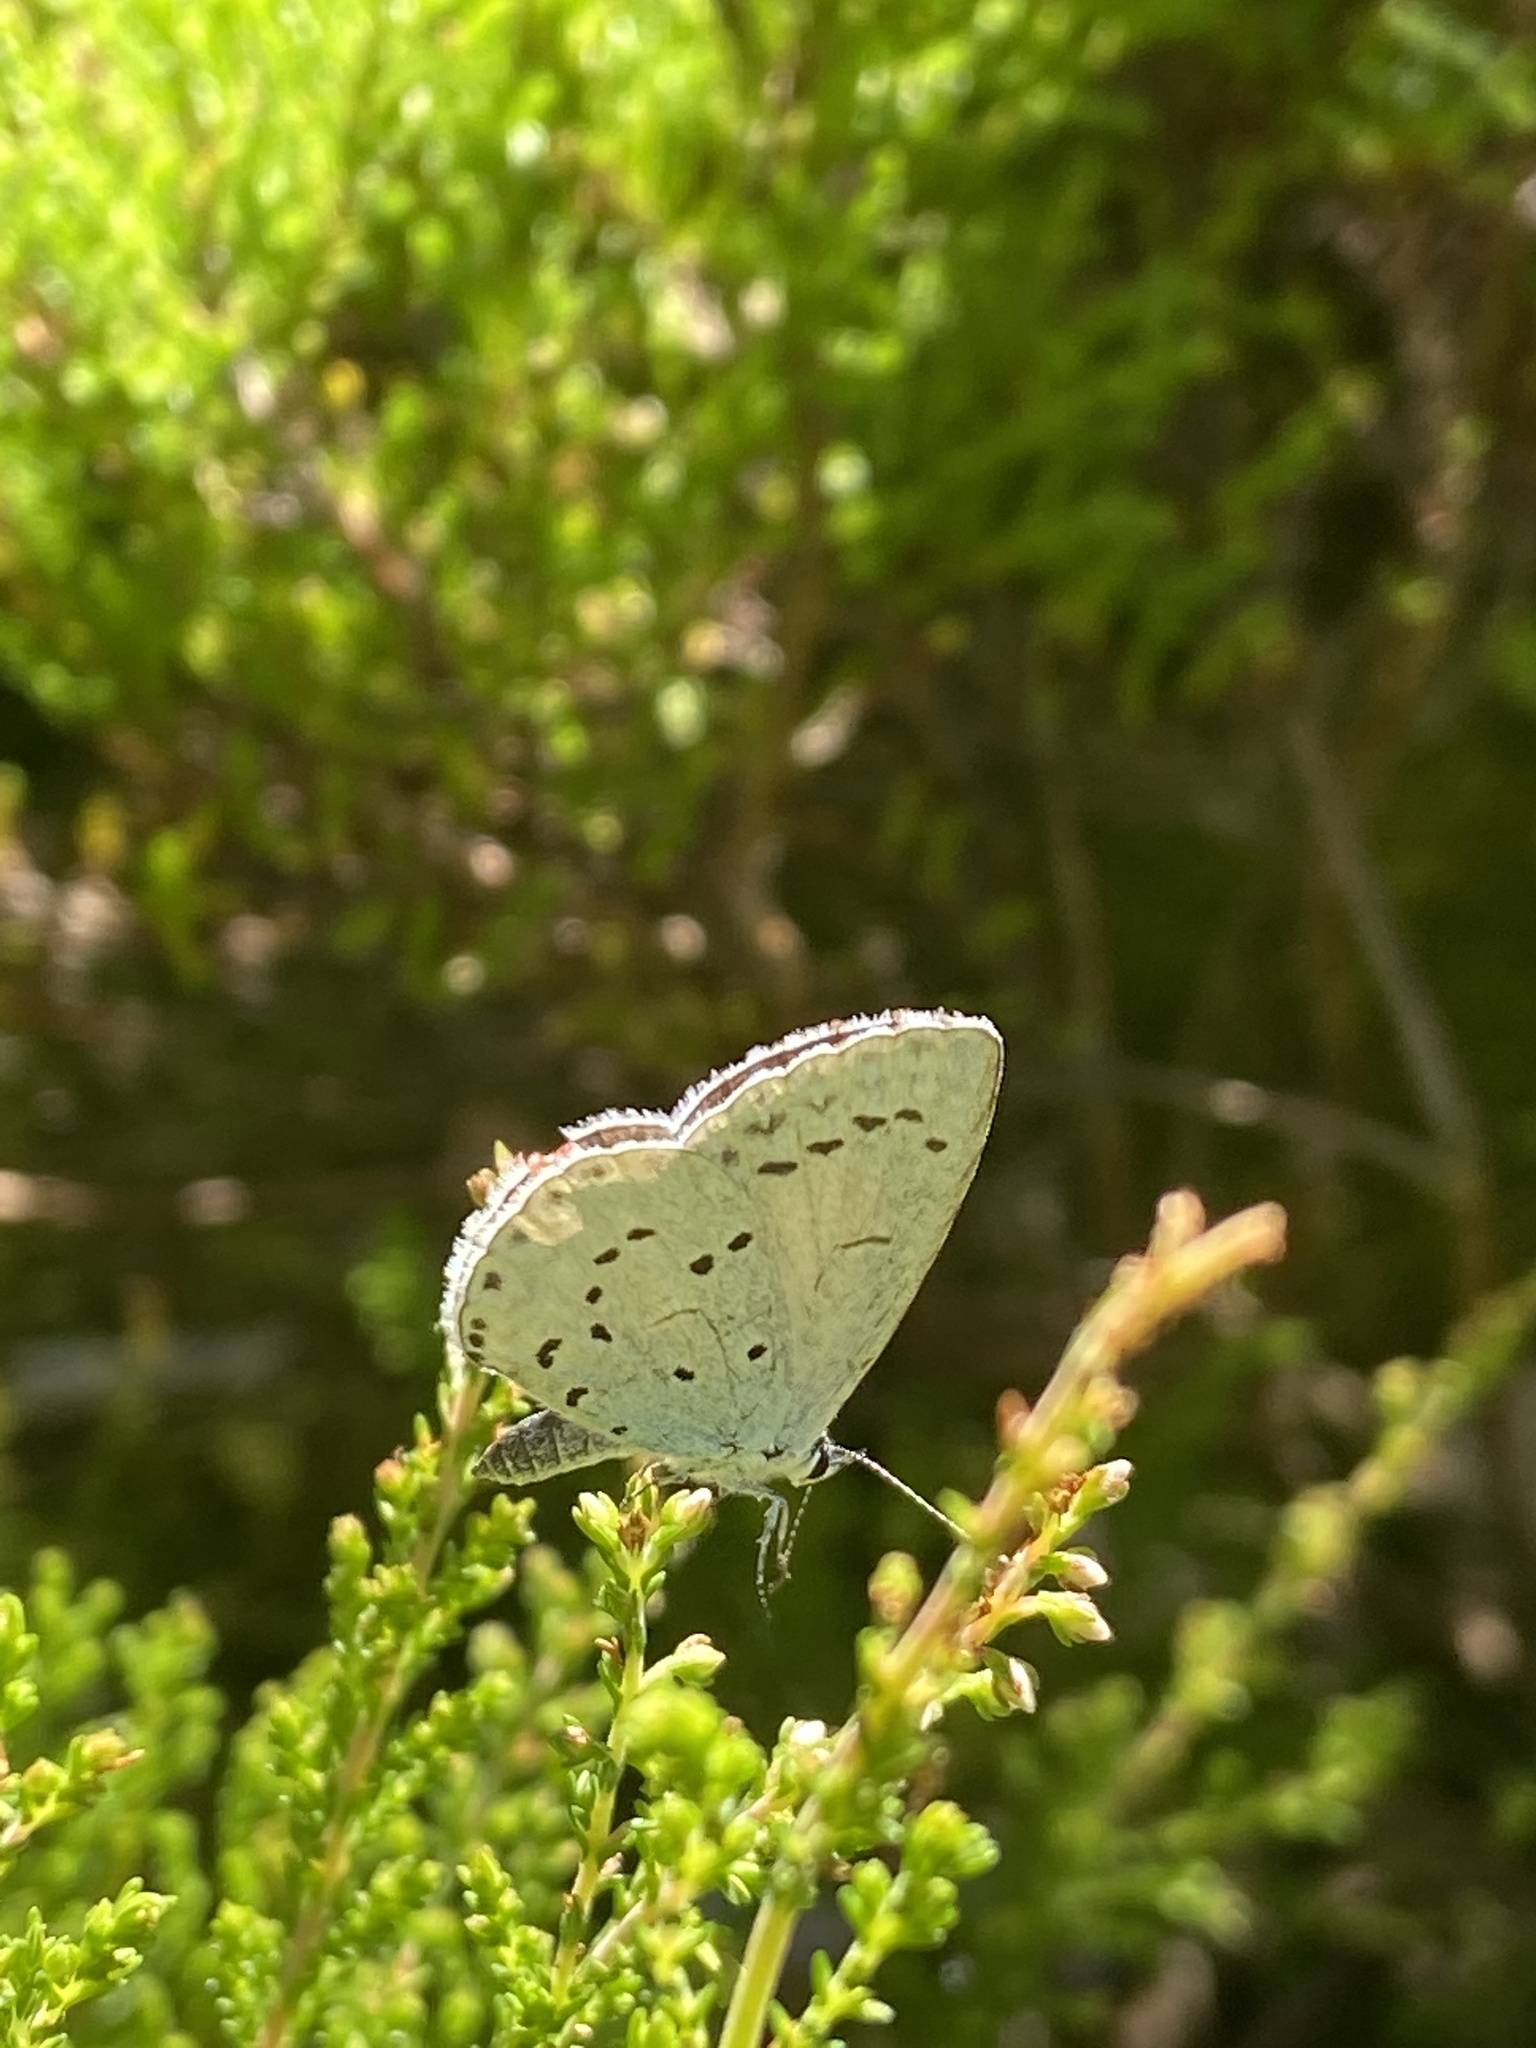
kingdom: Animalia
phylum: Arthropoda
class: Insecta
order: Lepidoptera
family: Lycaenidae
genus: Celastrina
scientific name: Celastrina argiolus
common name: Holly blue
